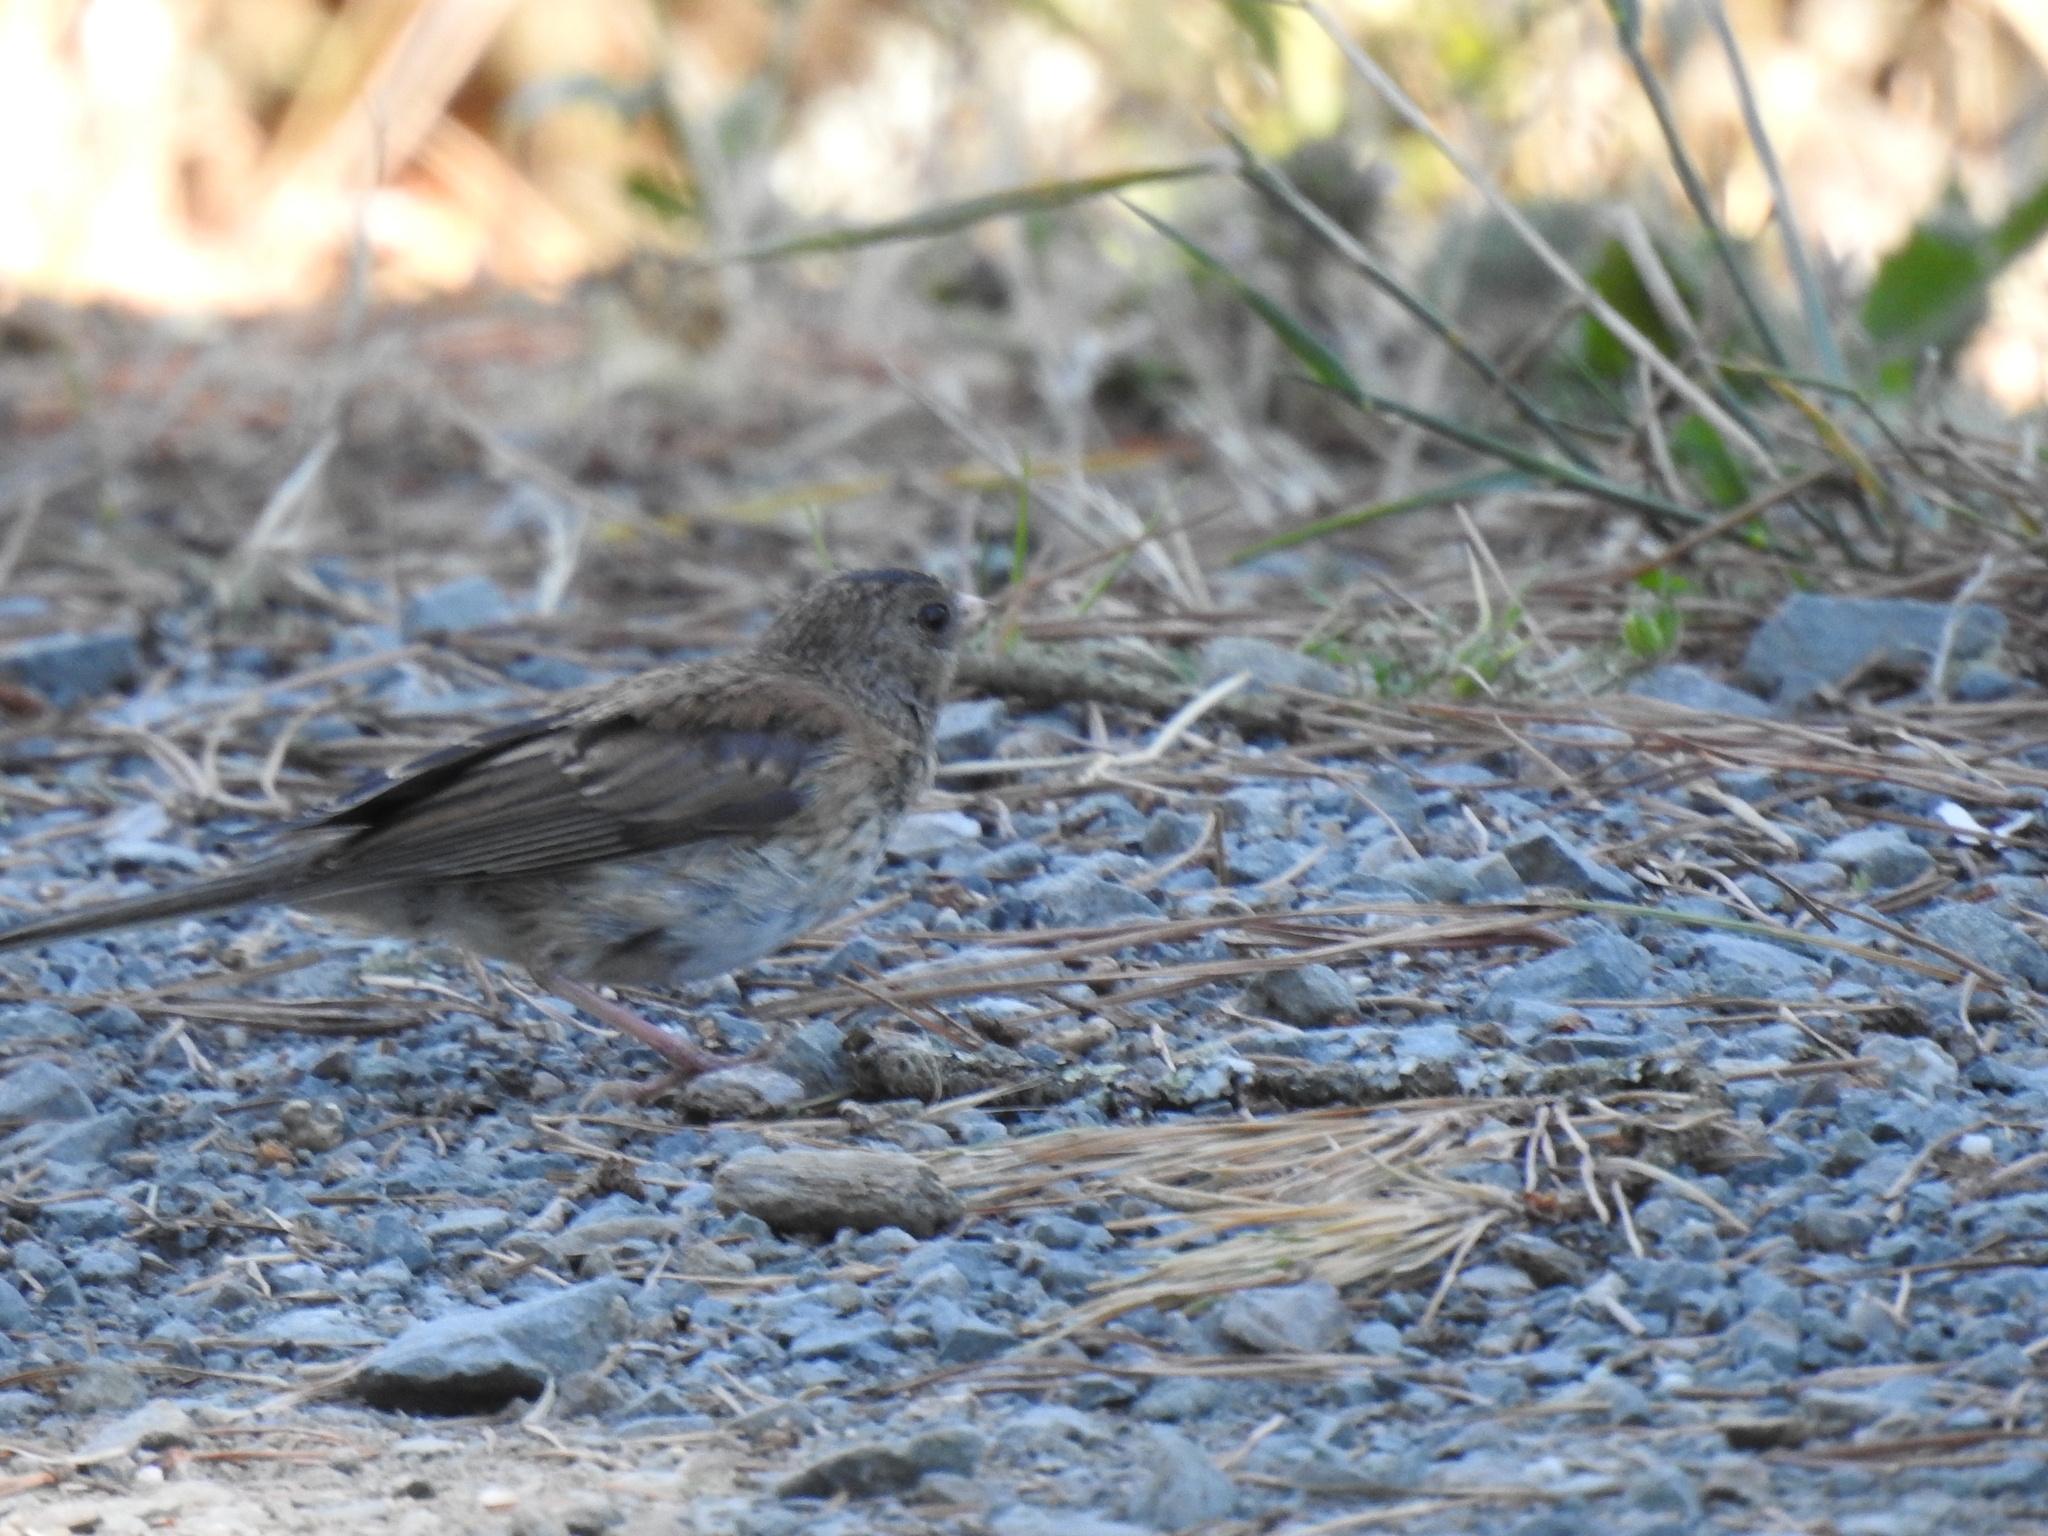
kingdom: Animalia
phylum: Chordata
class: Aves
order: Passeriformes
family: Passerellidae
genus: Junco
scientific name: Junco hyemalis
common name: Dark-eyed junco
